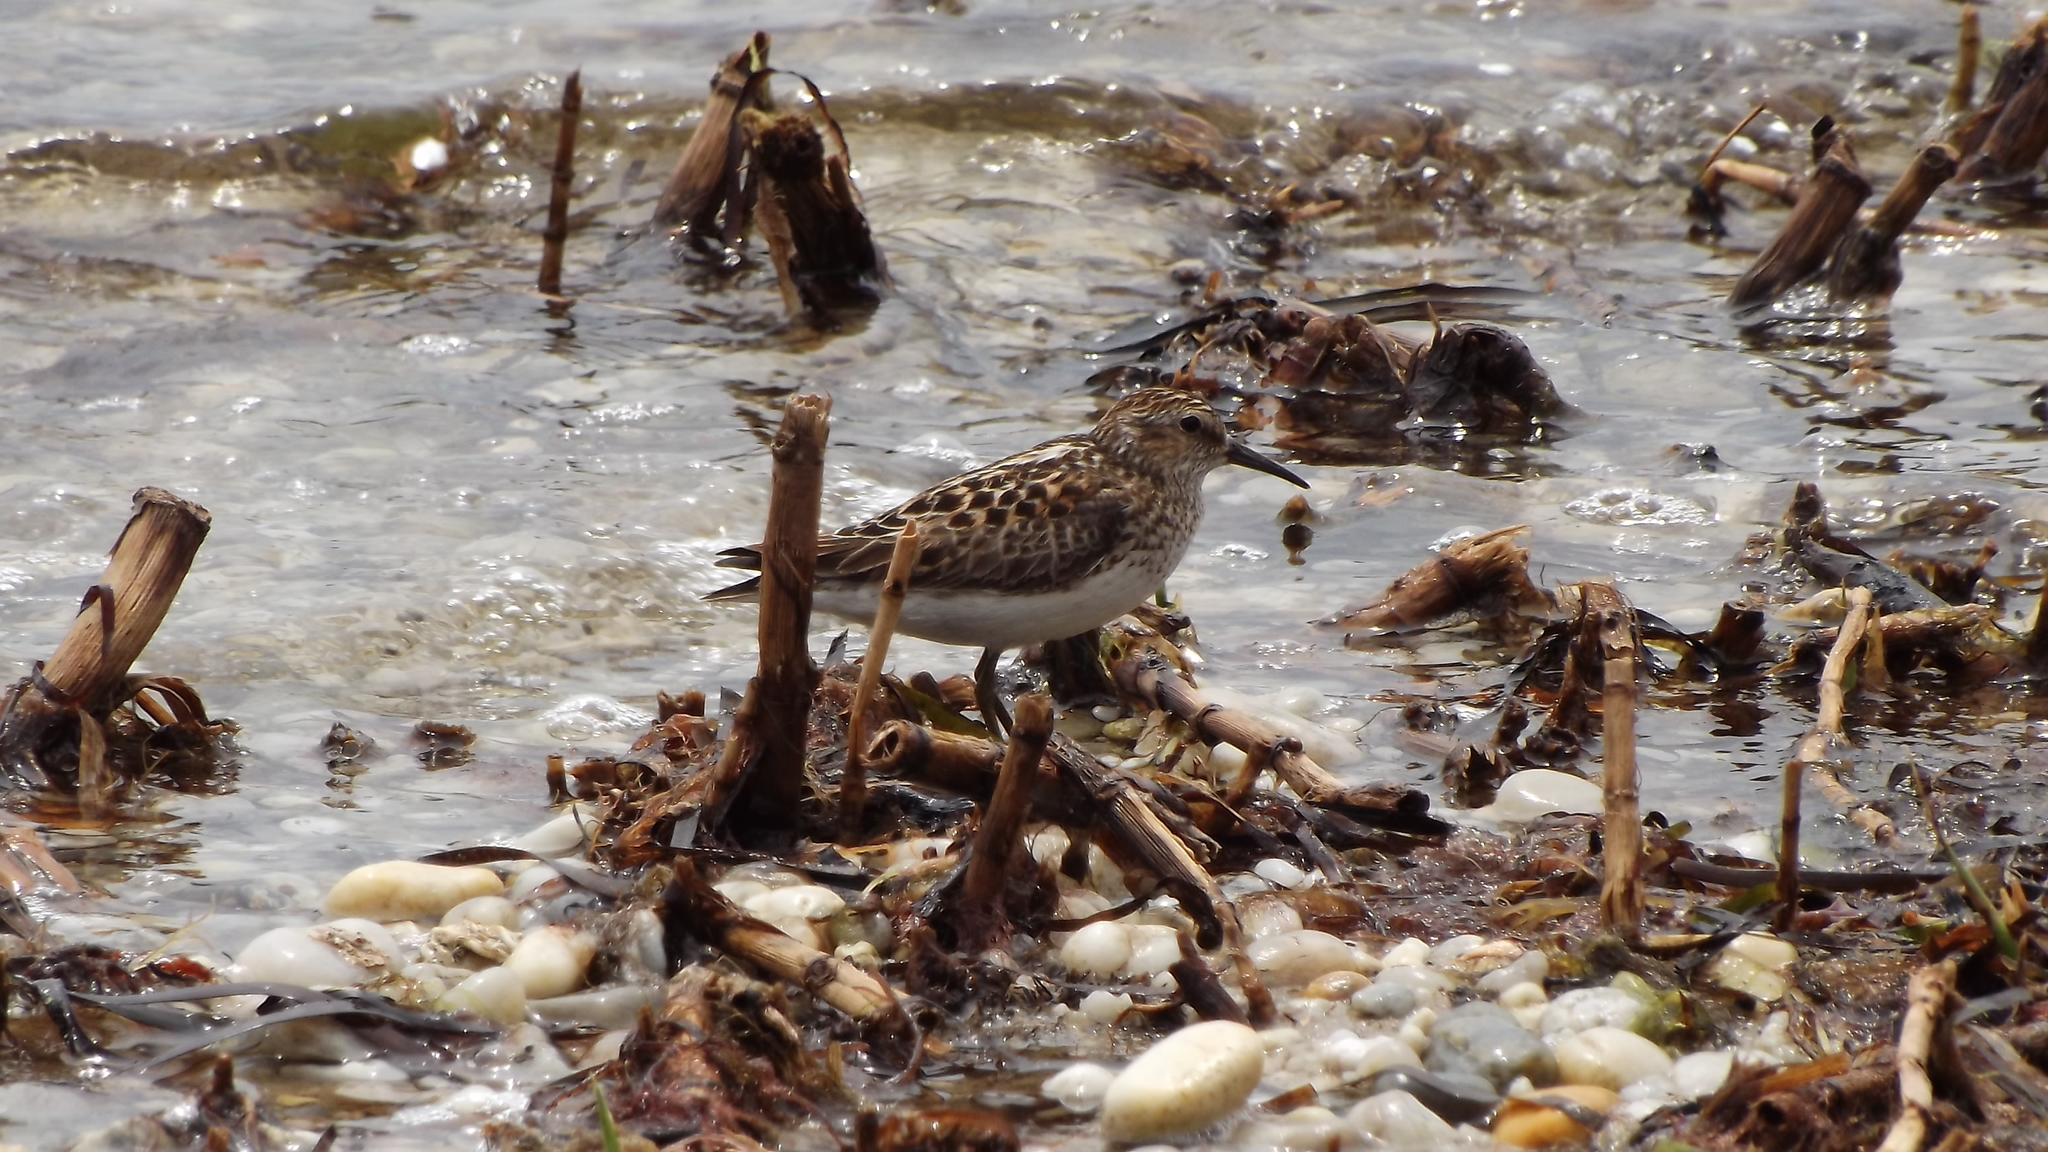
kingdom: Animalia
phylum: Chordata
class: Aves
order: Charadriiformes
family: Scolopacidae
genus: Calidris
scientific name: Calidris minutilla
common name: Least sandpiper
